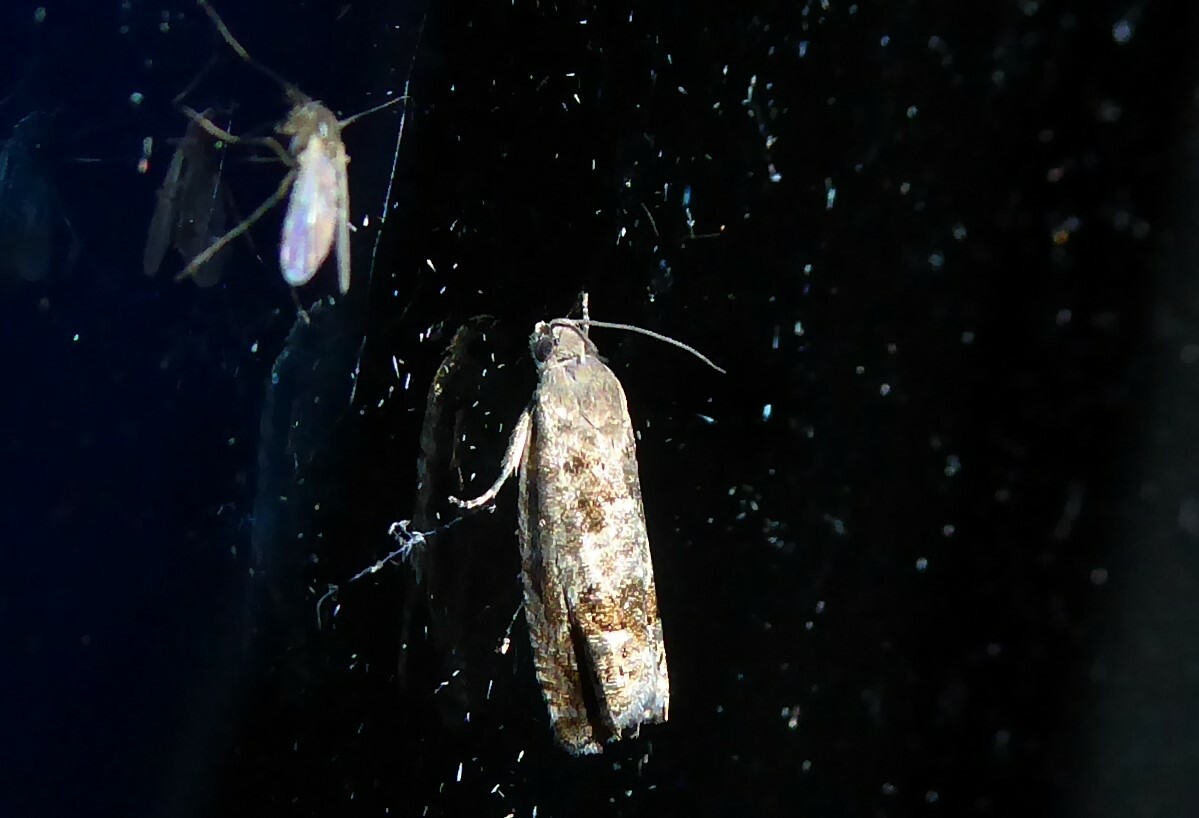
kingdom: Animalia
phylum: Arthropoda
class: Insecta
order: Lepidoptera
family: Tortricidae
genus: Cydia
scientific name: Cydia succedana
